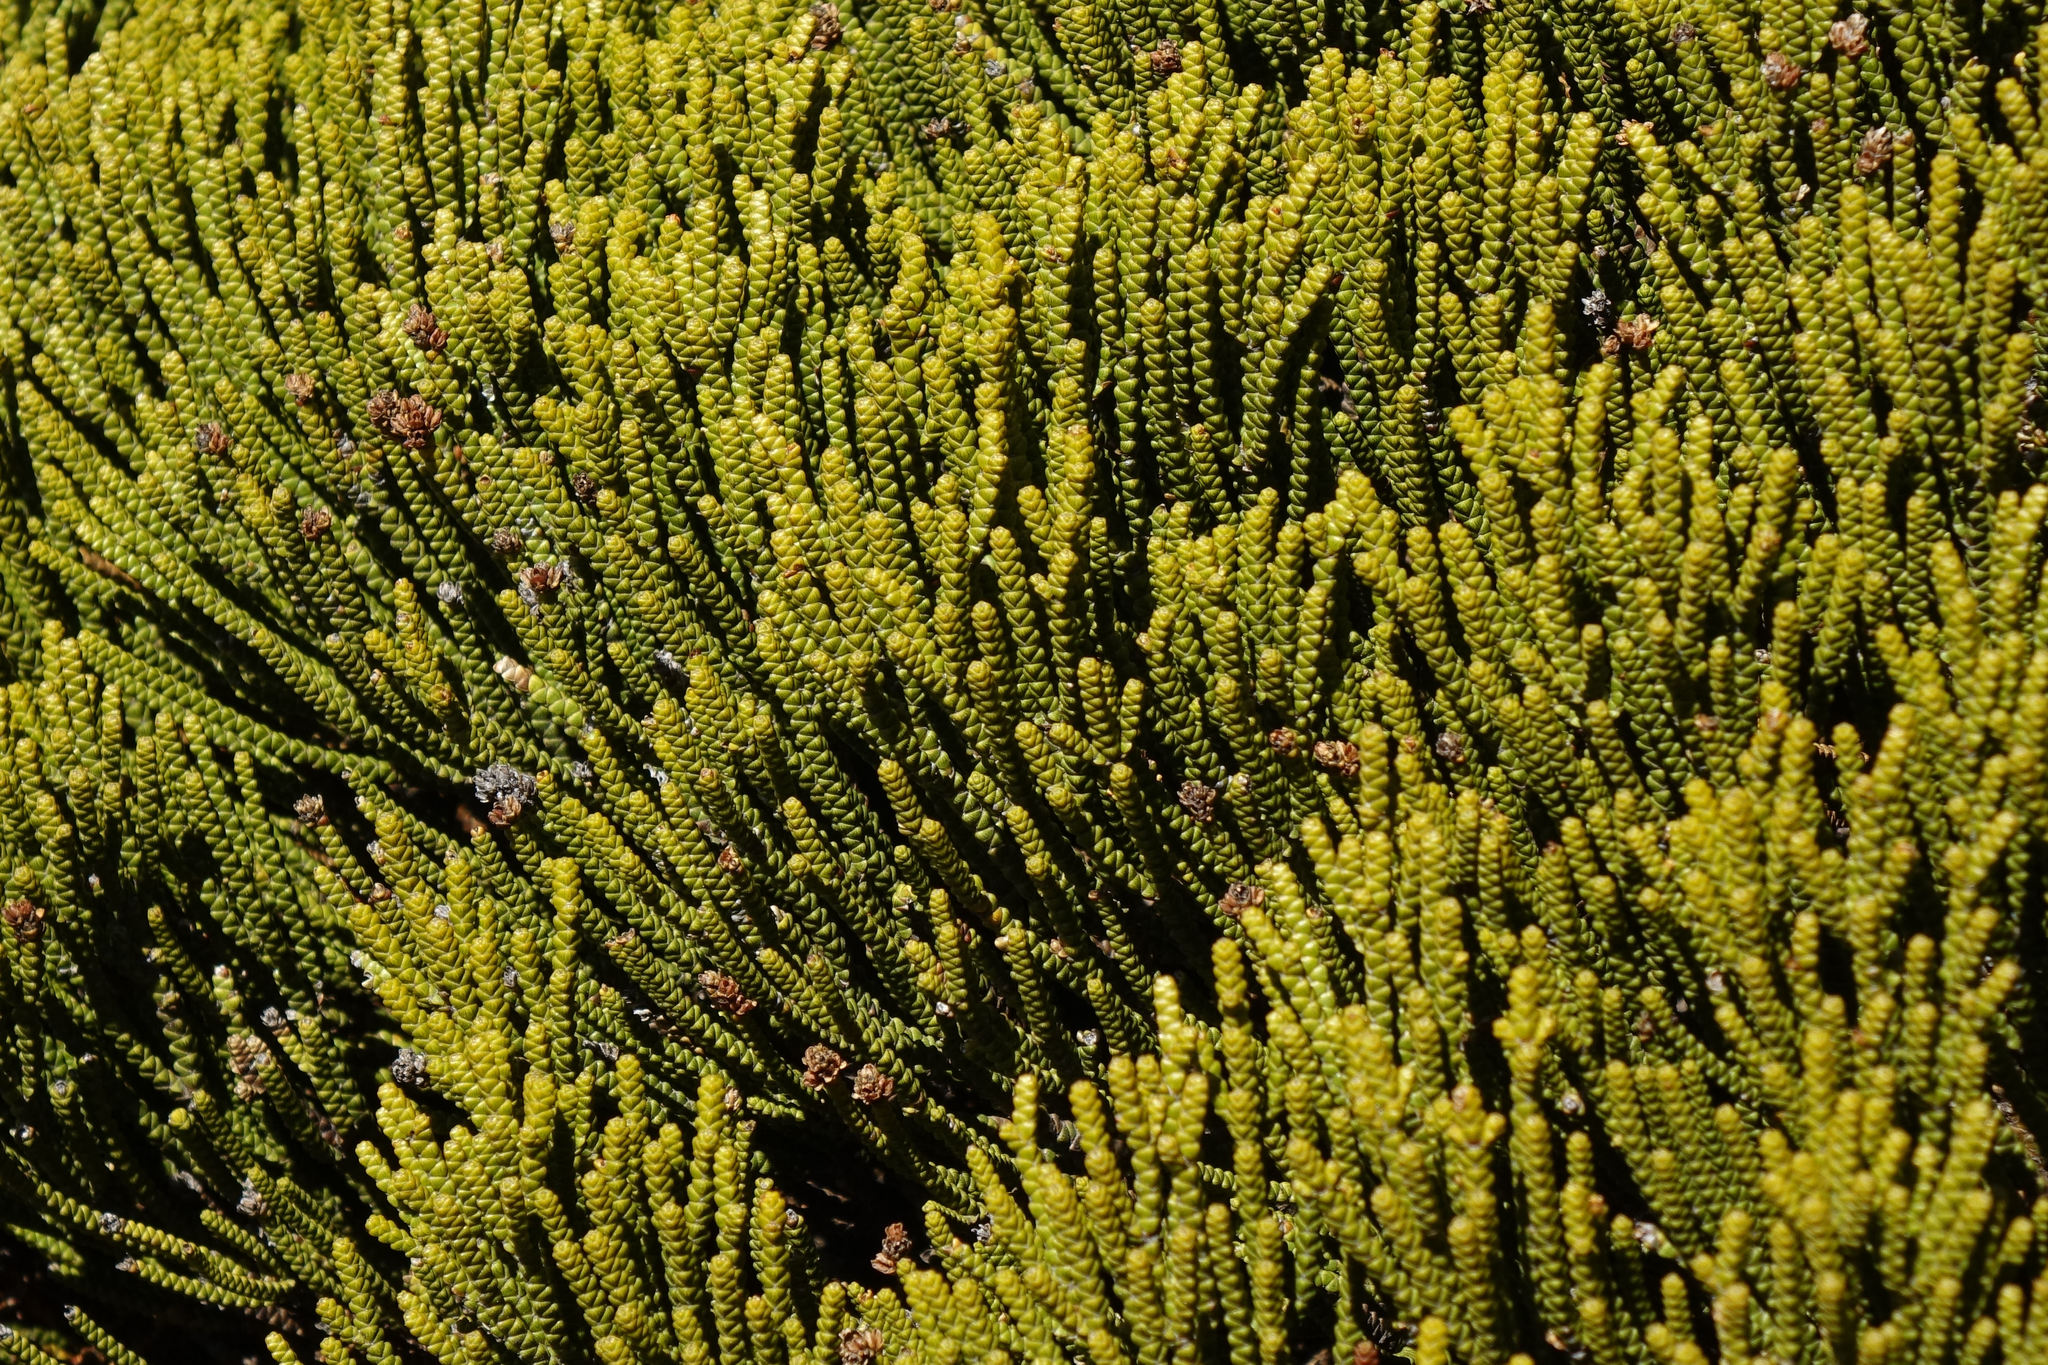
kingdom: Plantae
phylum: Tracheophyta
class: Magnoliopsida
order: Lamiales
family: Plantaginaceae
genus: Veronica
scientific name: Veronica poppelwellii
